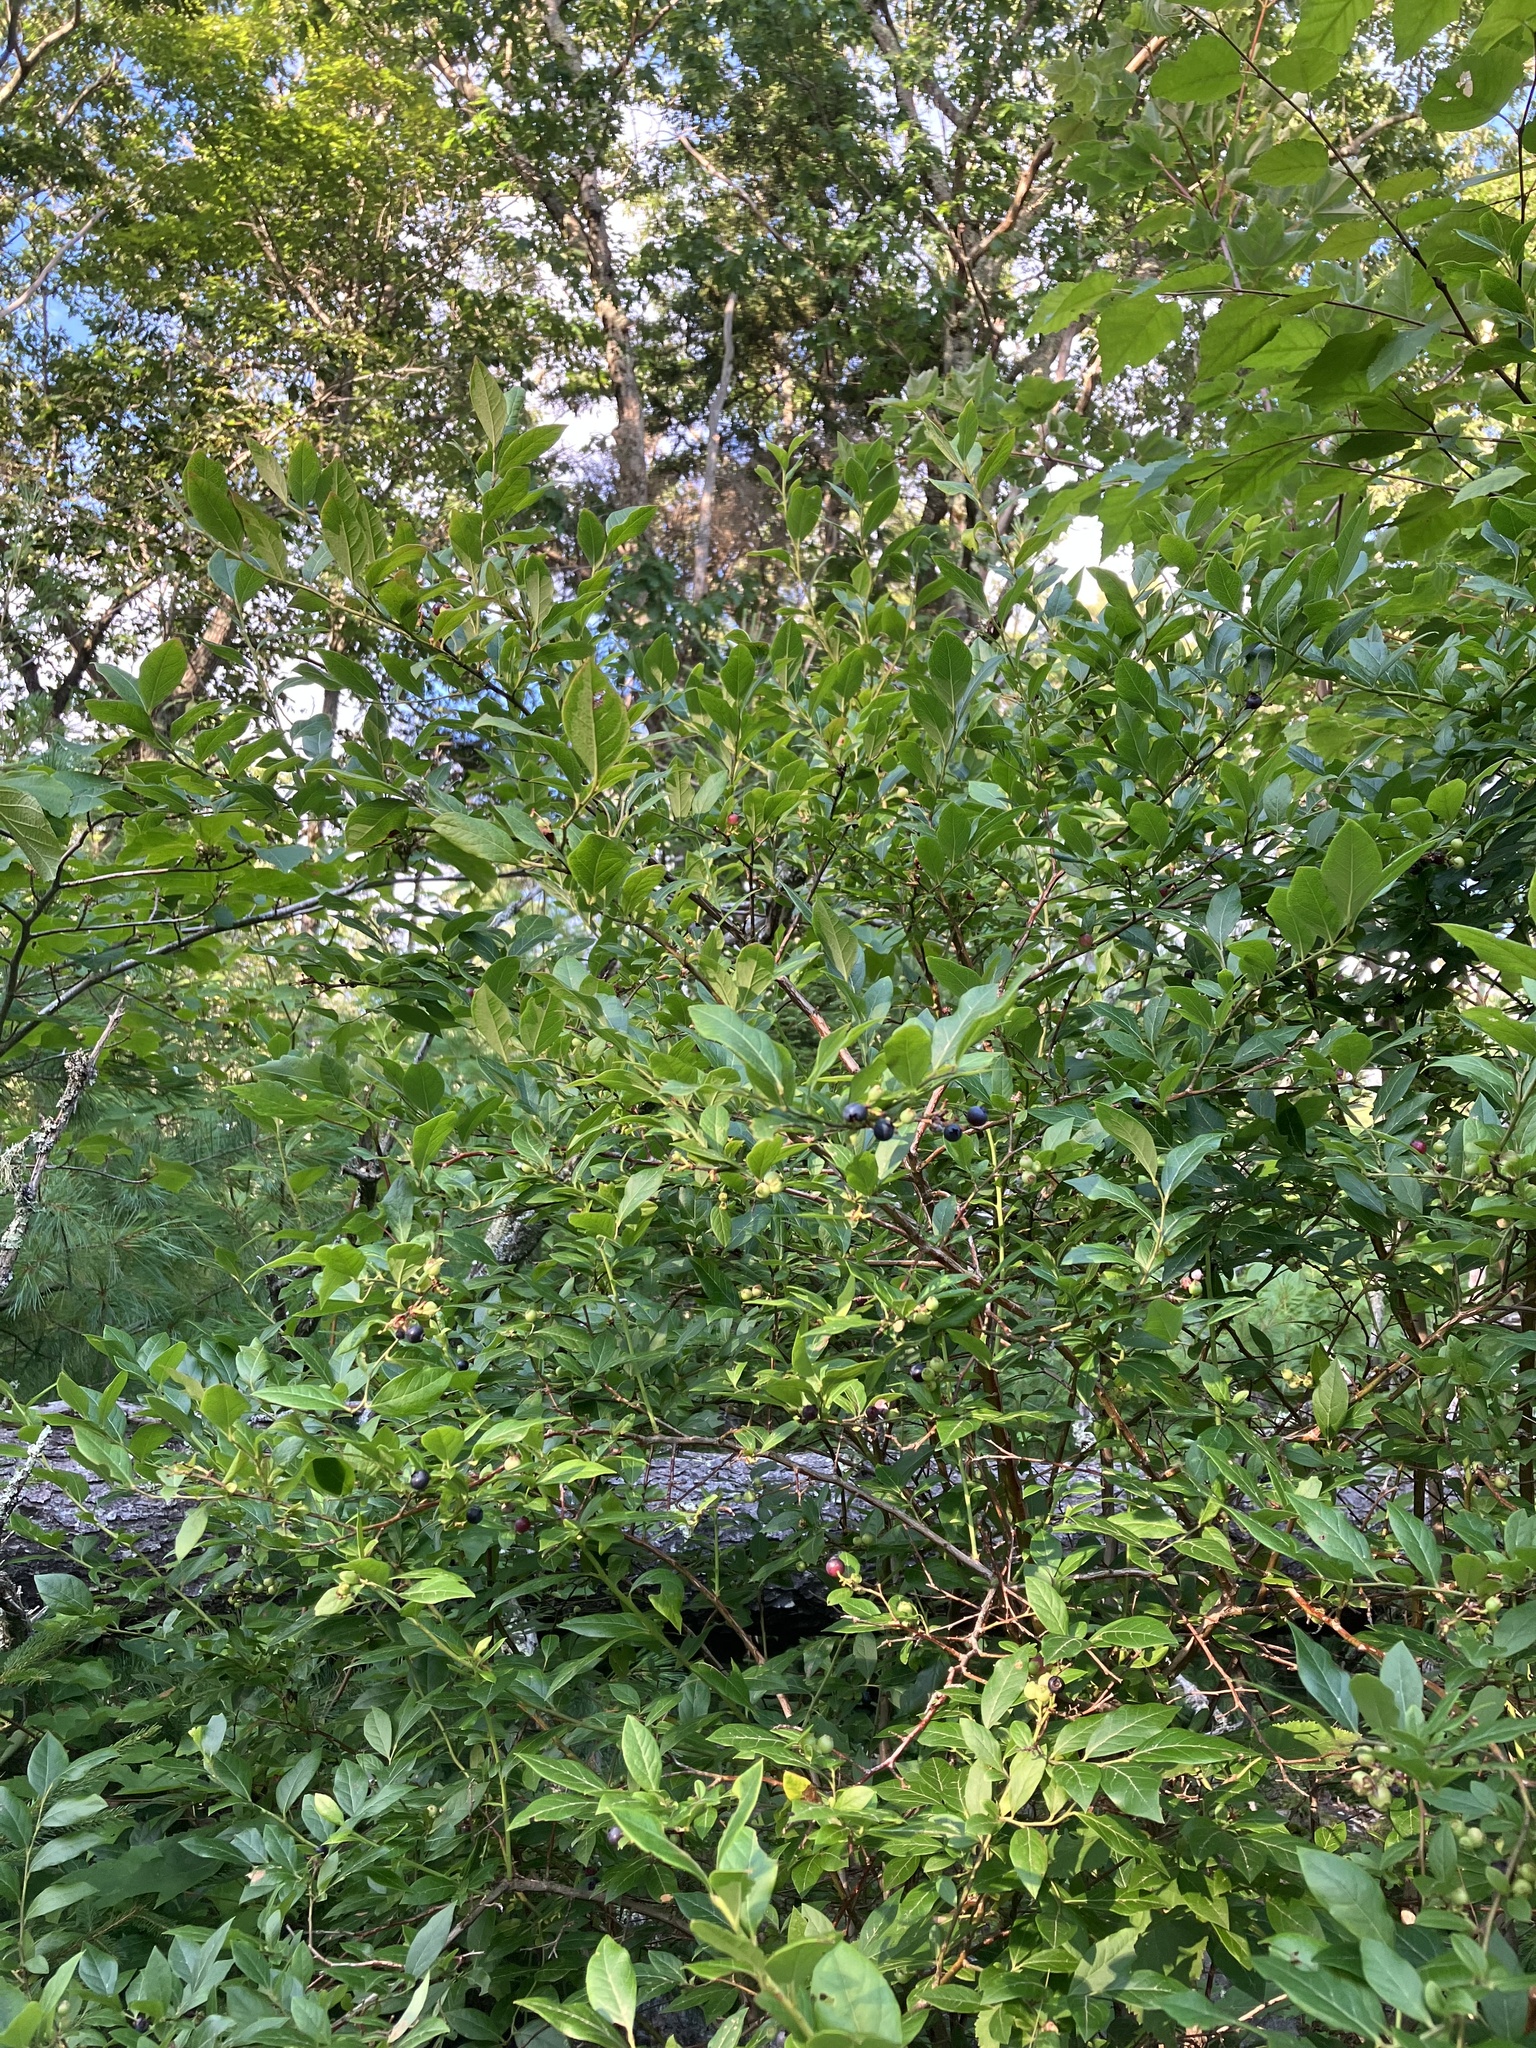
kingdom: Plantae
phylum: Tracheophyta
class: Magnoliopsida
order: Ericales
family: Ericaceae
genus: Vaccinium
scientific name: Vaccinium corymbosum
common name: Blueberry
